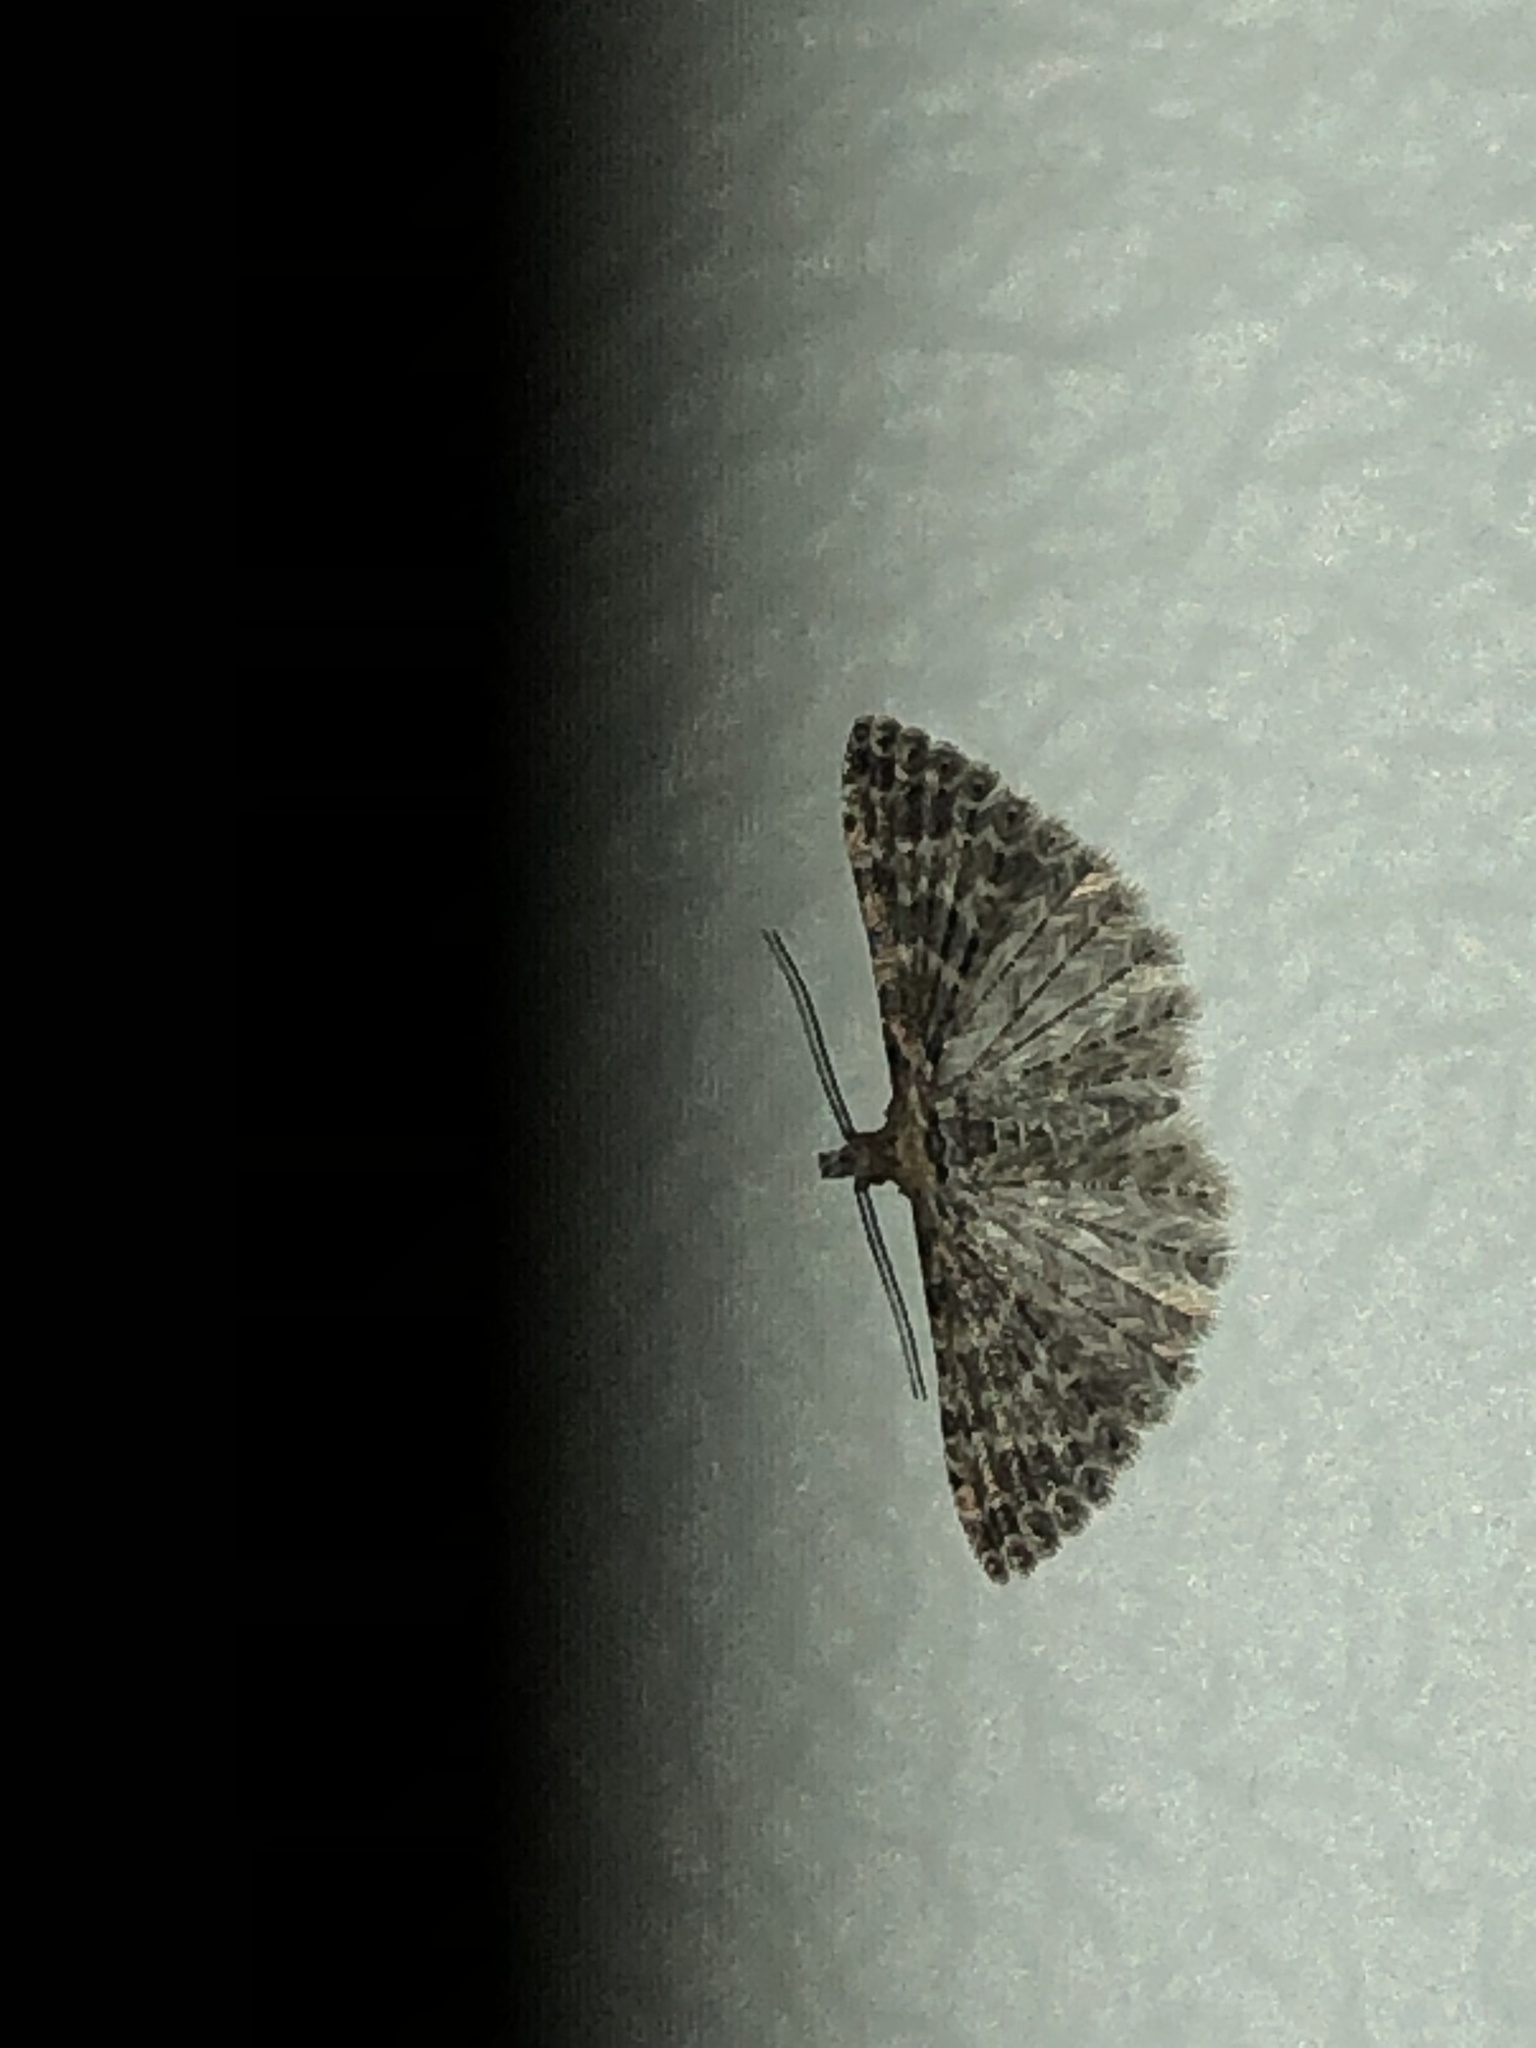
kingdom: Animalia
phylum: Arthropoda
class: Insecta
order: Lepidoptera
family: Alucitidae
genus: Alucita
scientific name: Alucita montana
